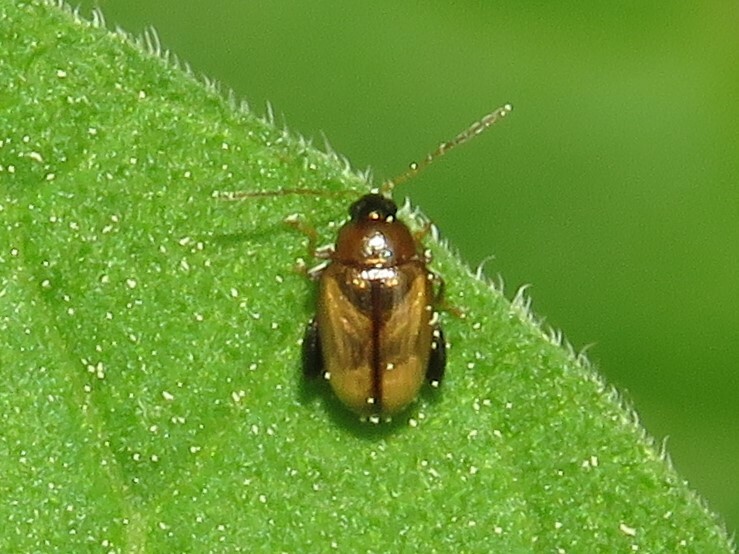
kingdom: Animalia
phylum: Arthropoda
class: Insecta
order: Coleoptera
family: Chrysomelidae
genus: Psylliodes
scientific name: Psylliodes affinis
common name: Potato flea beetle
